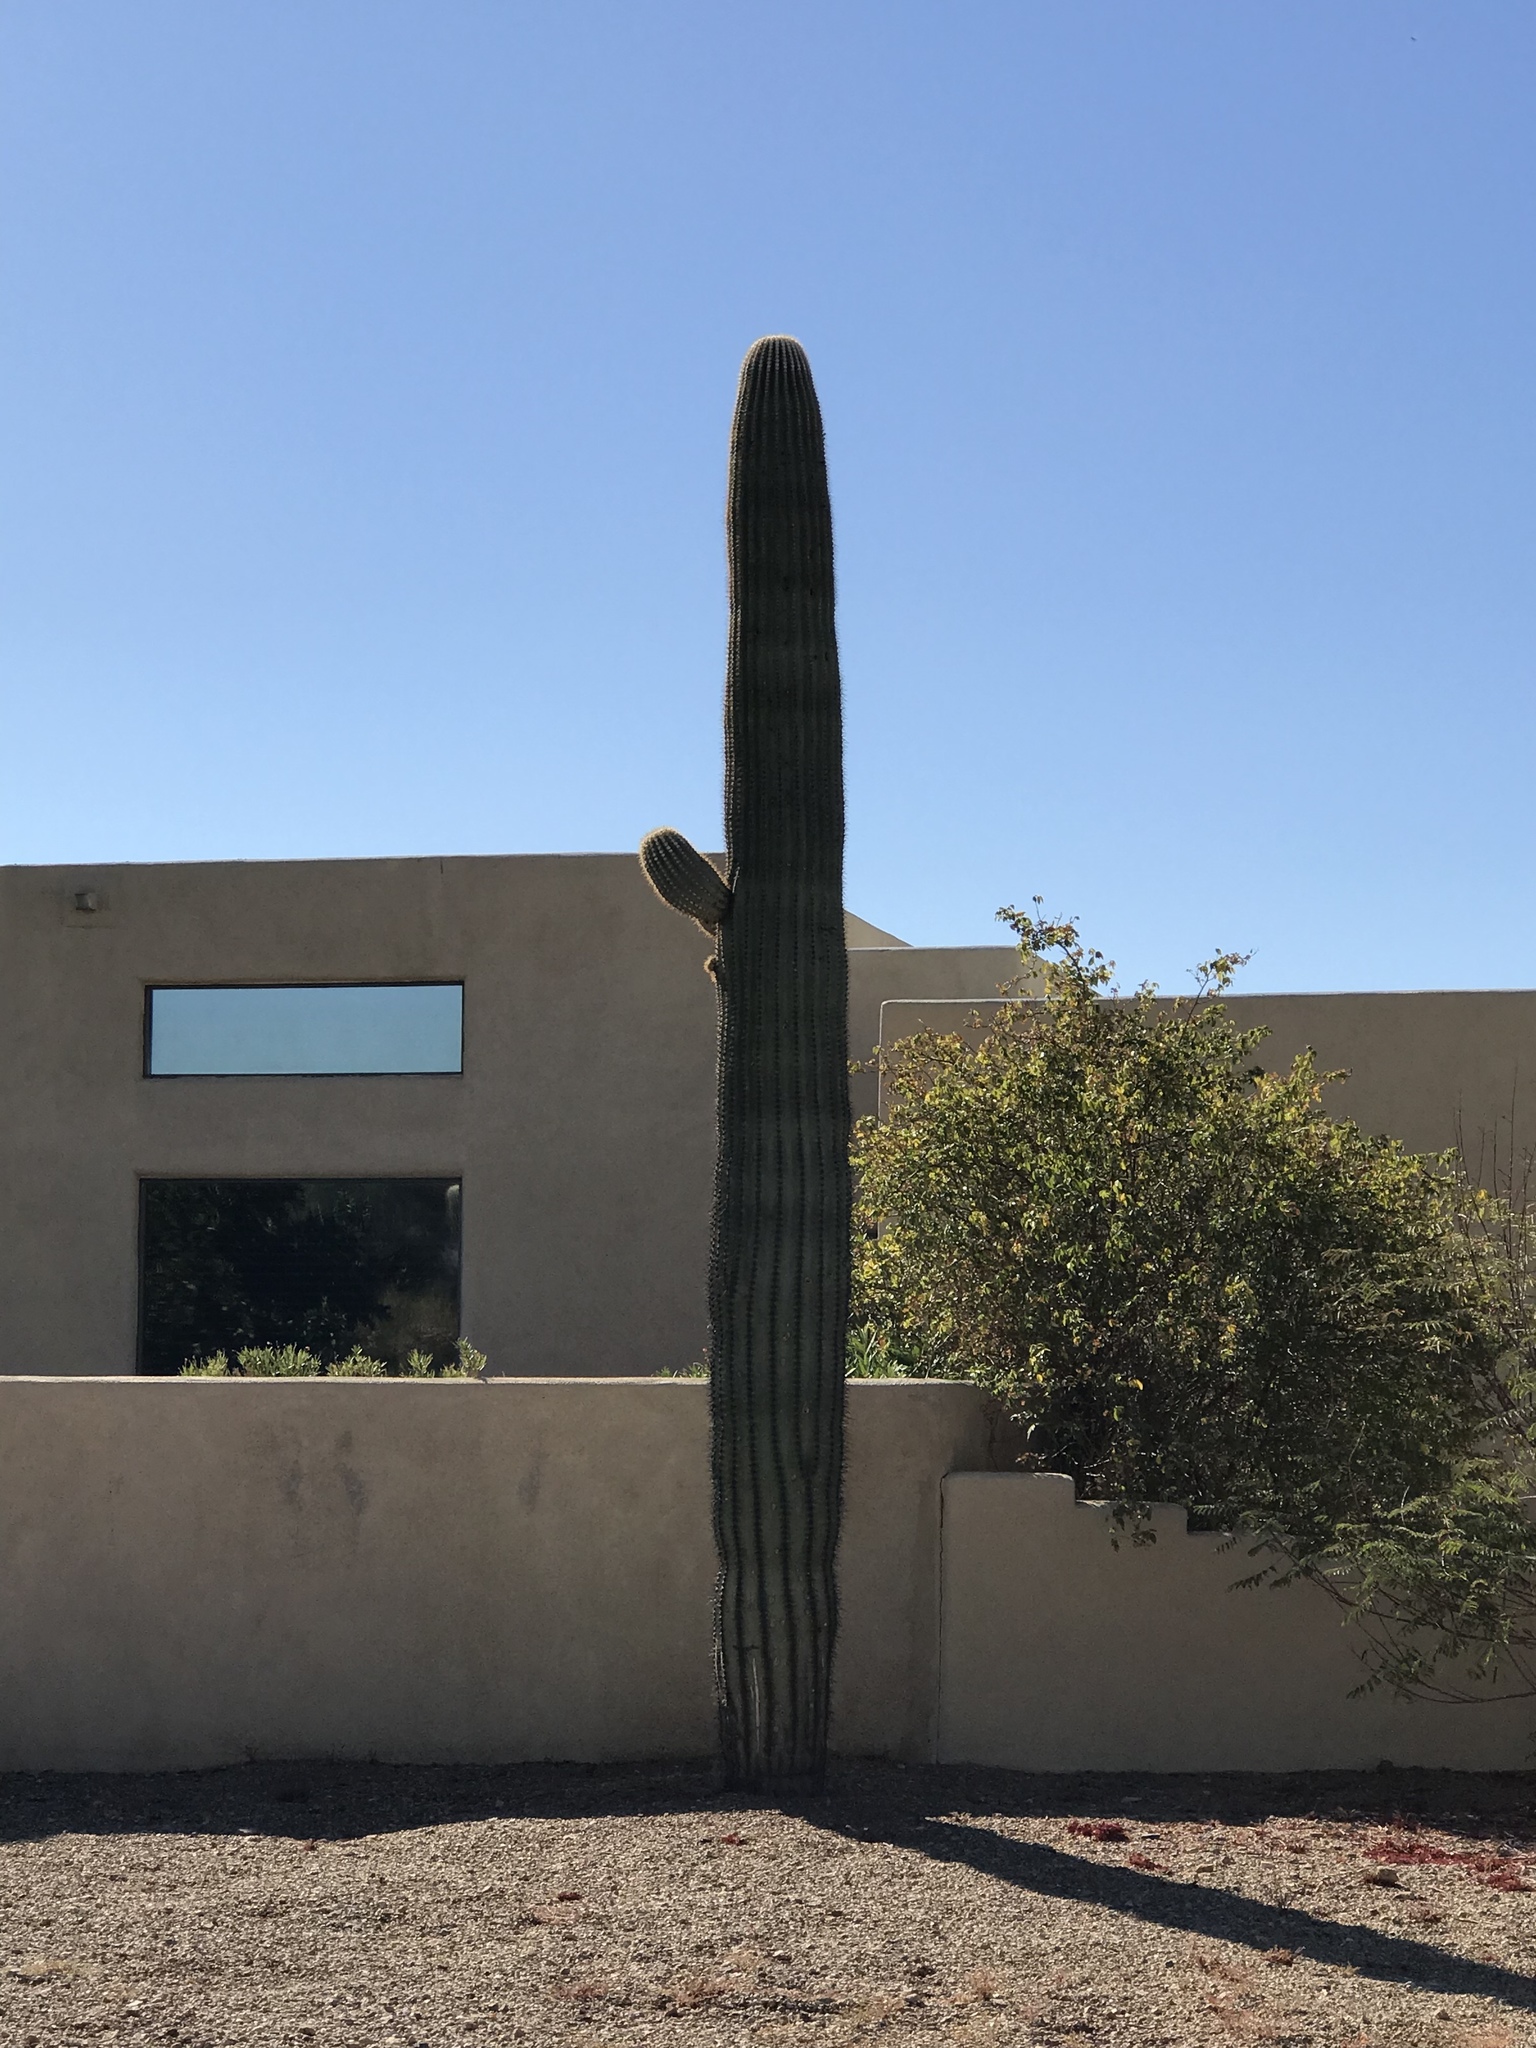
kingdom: Plantae
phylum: Tracheophyta
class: Magnoliopsida
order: Caryophyllales
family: Cactaceae
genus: Carnegiea
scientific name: Carnegiea gigantea
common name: Saguaro
